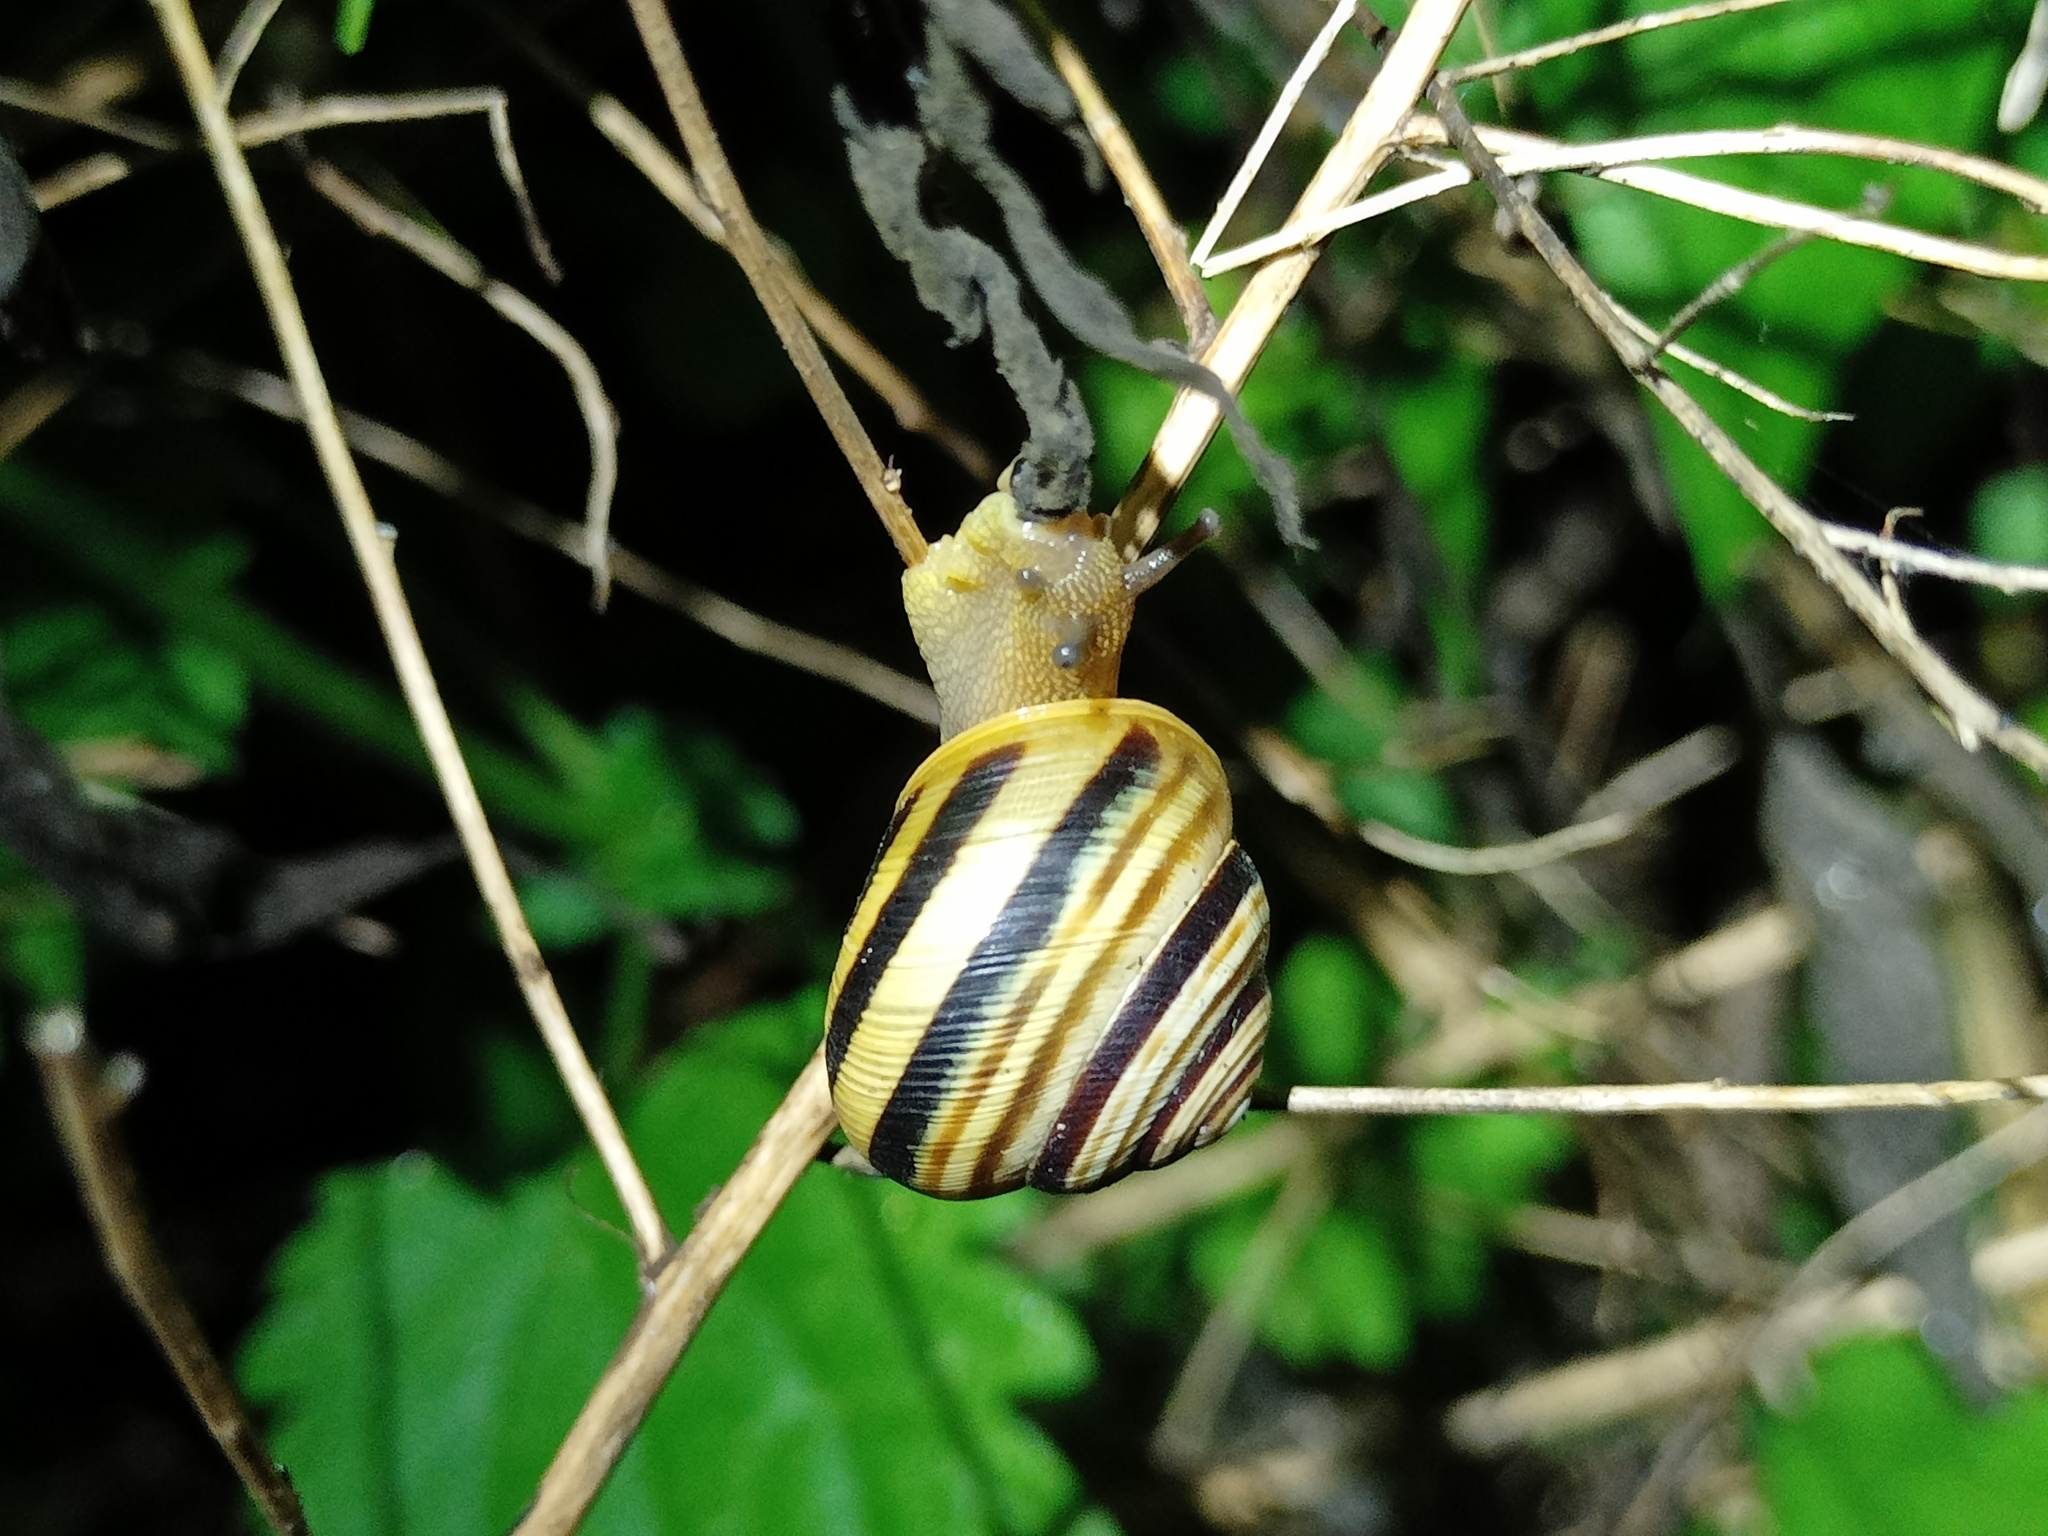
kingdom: Animalia
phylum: Mollusca
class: Gastropoda
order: Stylommatophora
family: Helicidae
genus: Caucasotachea
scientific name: Caucasotachea vindobonensis
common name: European helicid land snail
